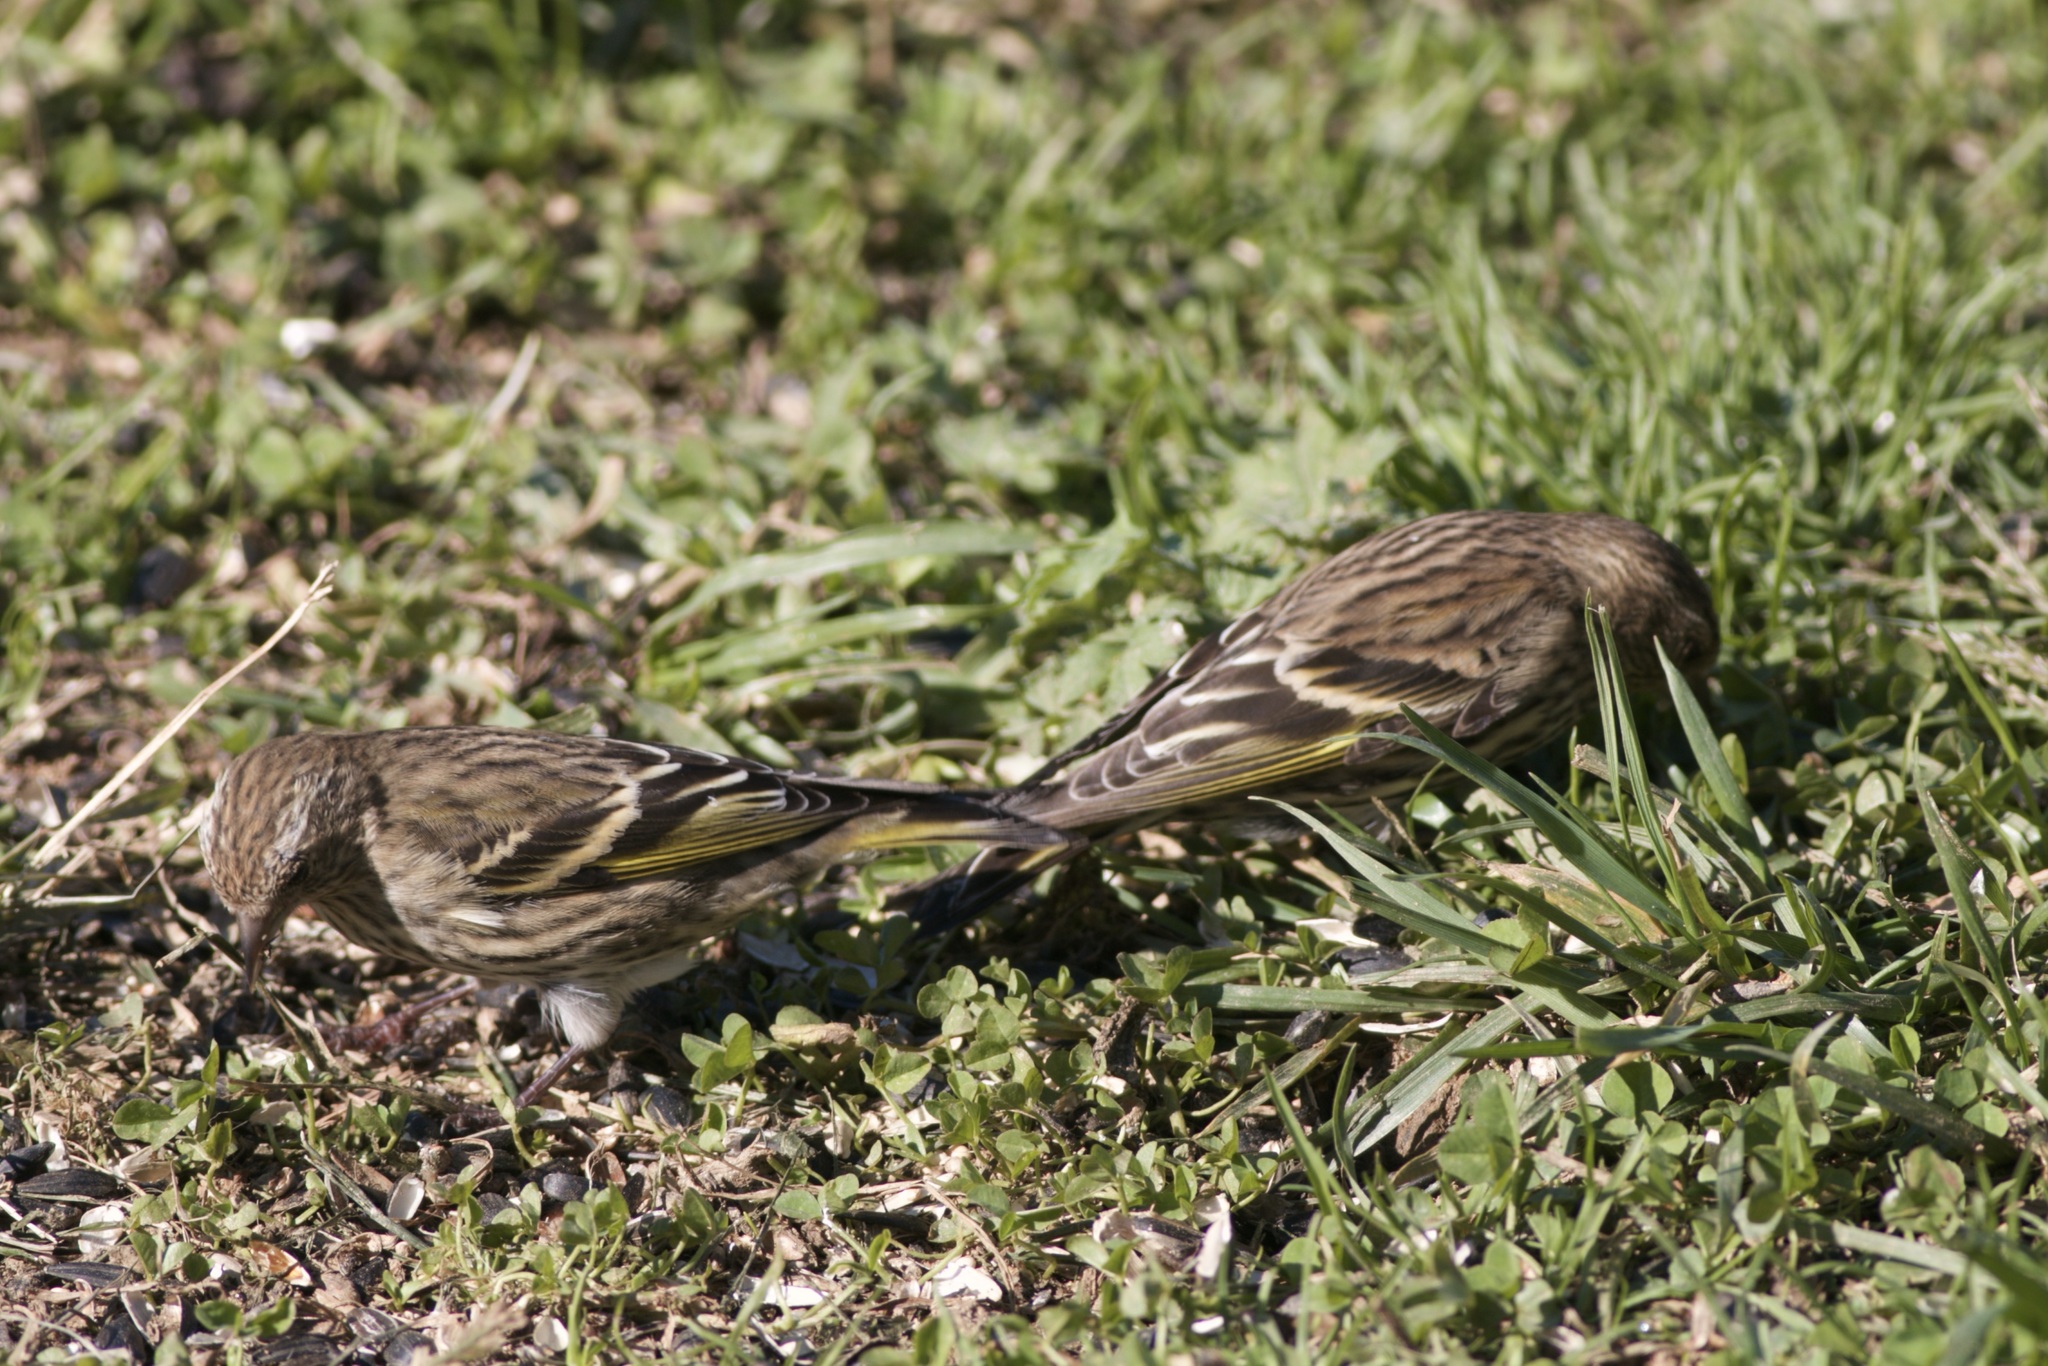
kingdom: Animalia
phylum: Chordata
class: Aves
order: Passeriformes
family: Fringillidae
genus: Spinus
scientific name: Spinus pinus
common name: Pine siskin
